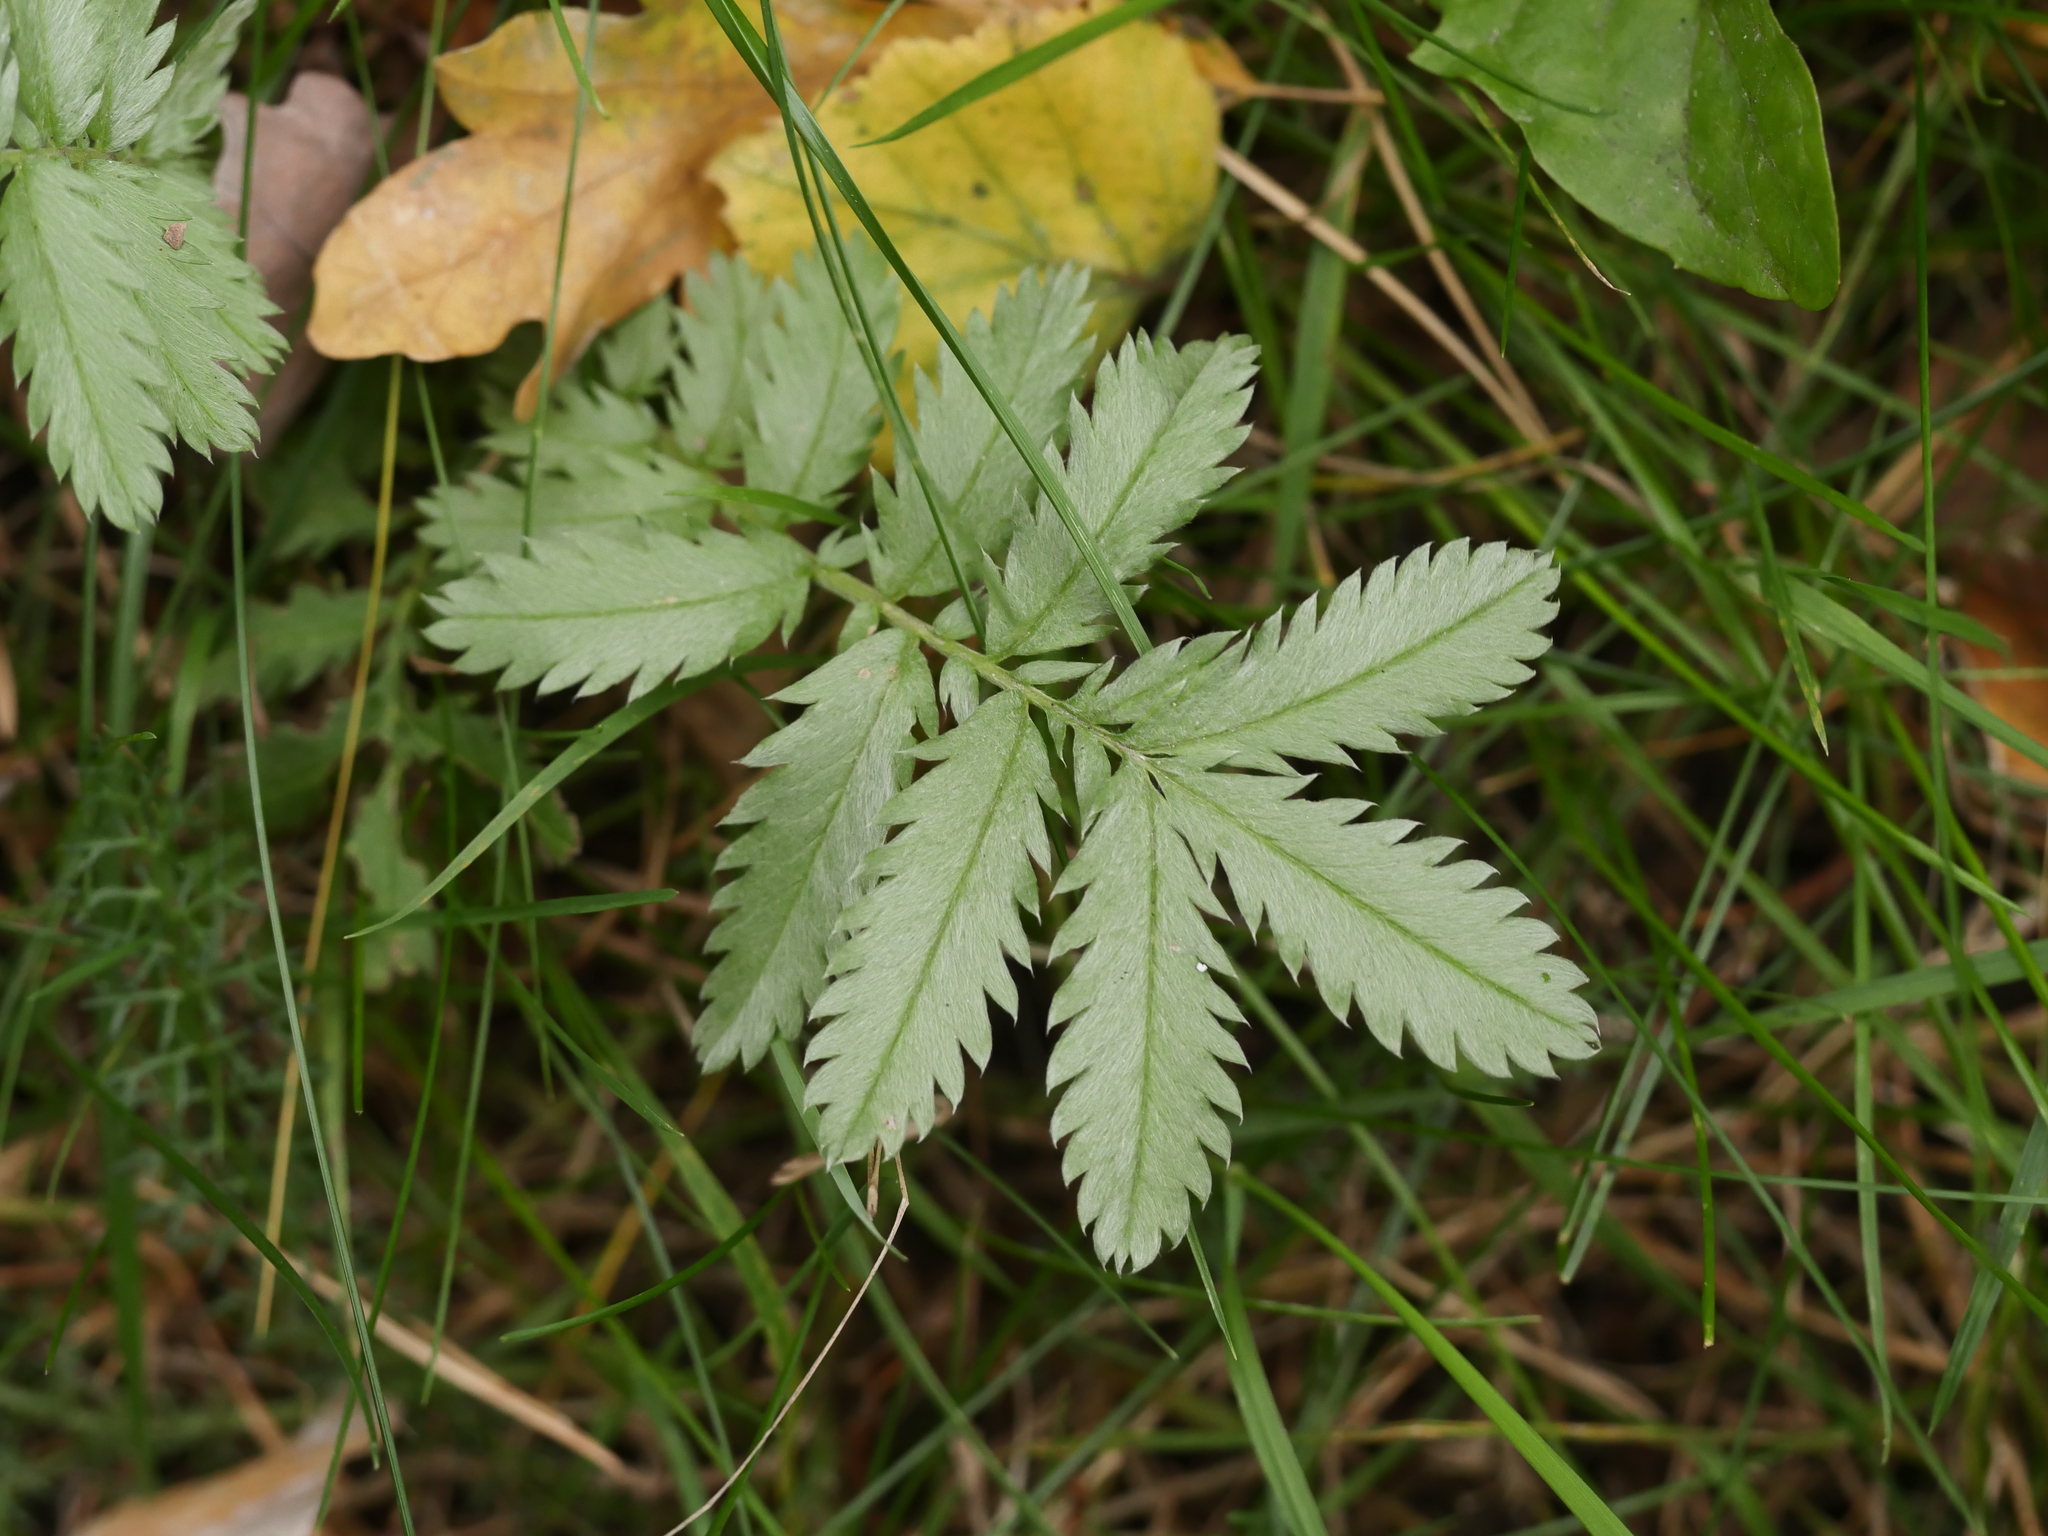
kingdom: Plantae
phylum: Tracheophyta
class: Magnoliopsida
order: Rosales
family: Rosaceae
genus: Argentina
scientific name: Argentina anserina
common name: Common silverweed
